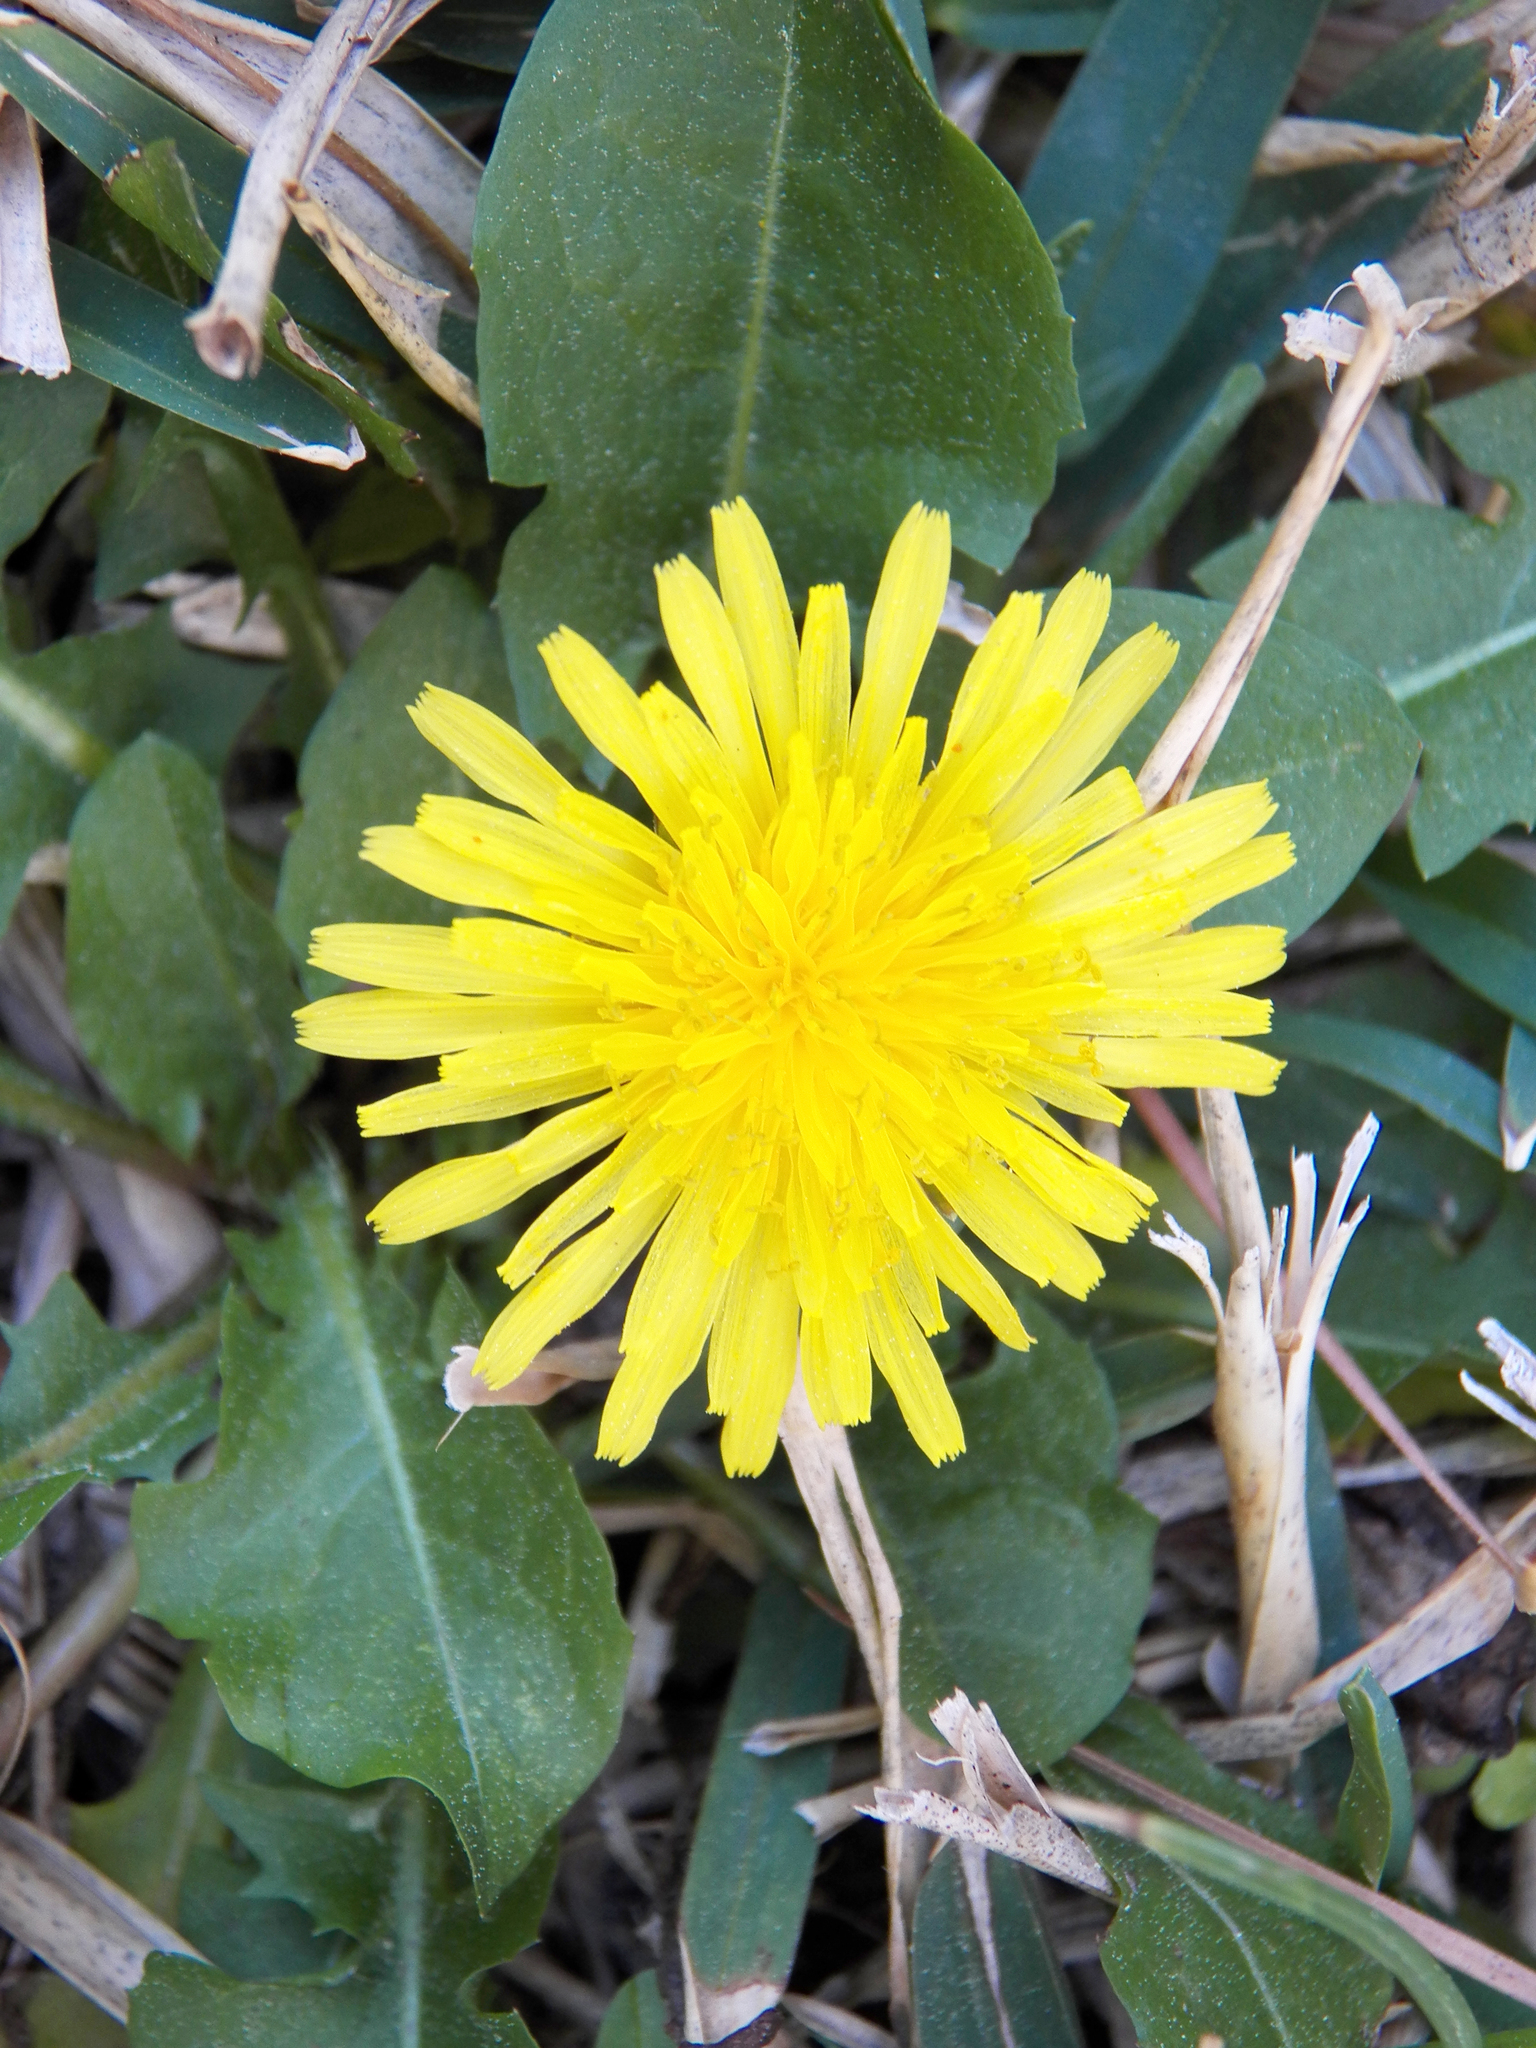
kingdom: Plantae
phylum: Tracheophyta
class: Magnoliopsida
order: Asterales
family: Asteraceae
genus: Taraxacum
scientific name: Taraxacum officinale
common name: Common dandelion
